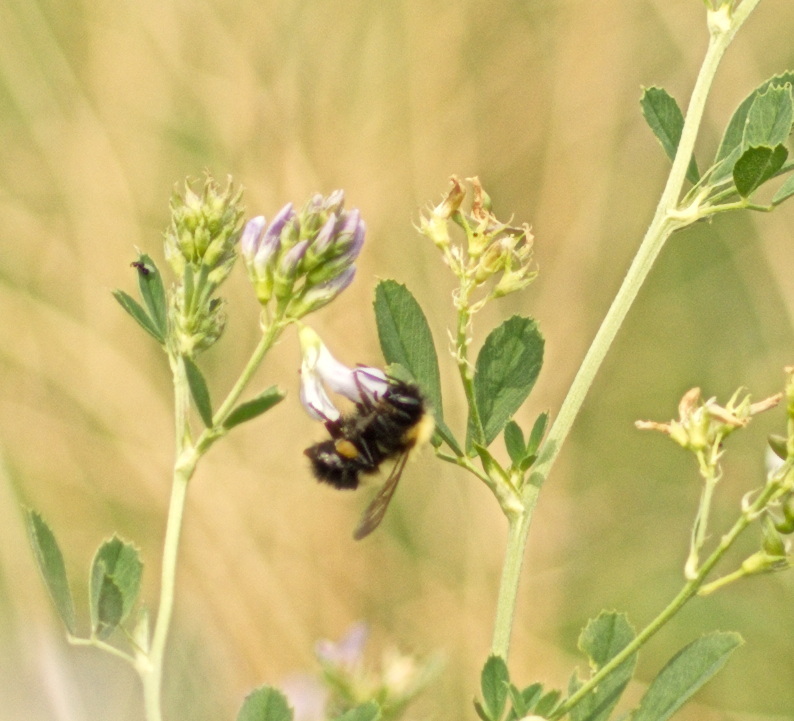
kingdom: Animalia
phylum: Arthropoda
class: Insecta
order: Hymenoptera
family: Apidae
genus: Bombus
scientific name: Bombus perplexus
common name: Confusing bumble bee
